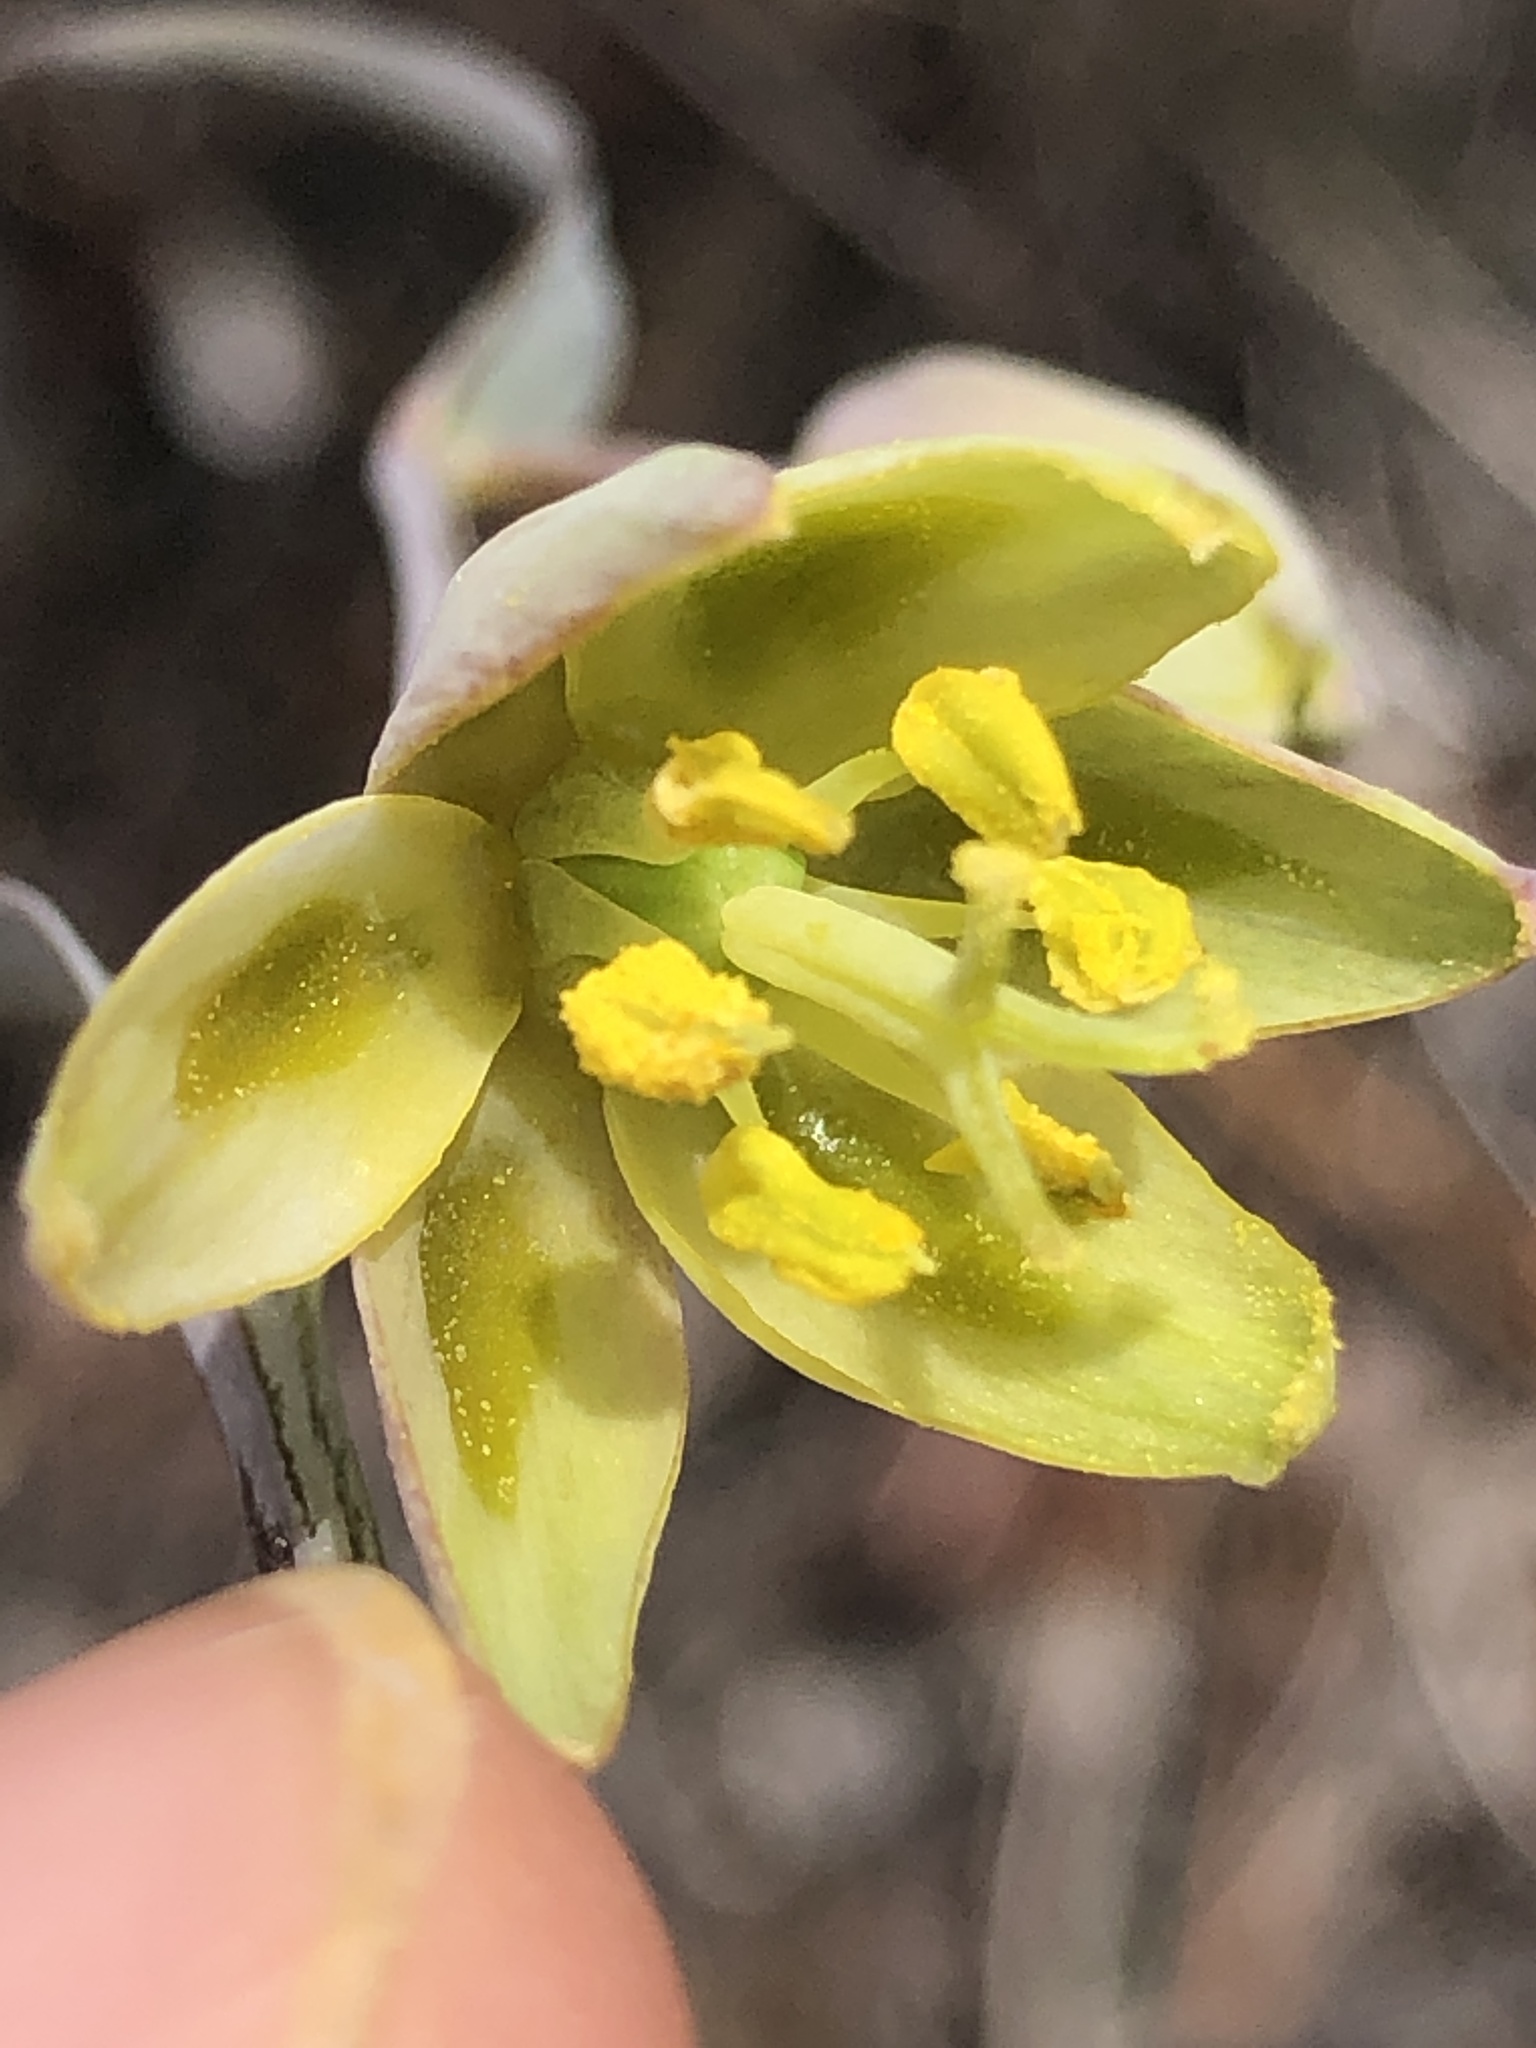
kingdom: Plantae
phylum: Tracheophyta
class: Liliopsida
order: Liliales
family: Liliaceae
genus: Fritillaria
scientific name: Fritillaria viridea
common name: San benito fritillary
